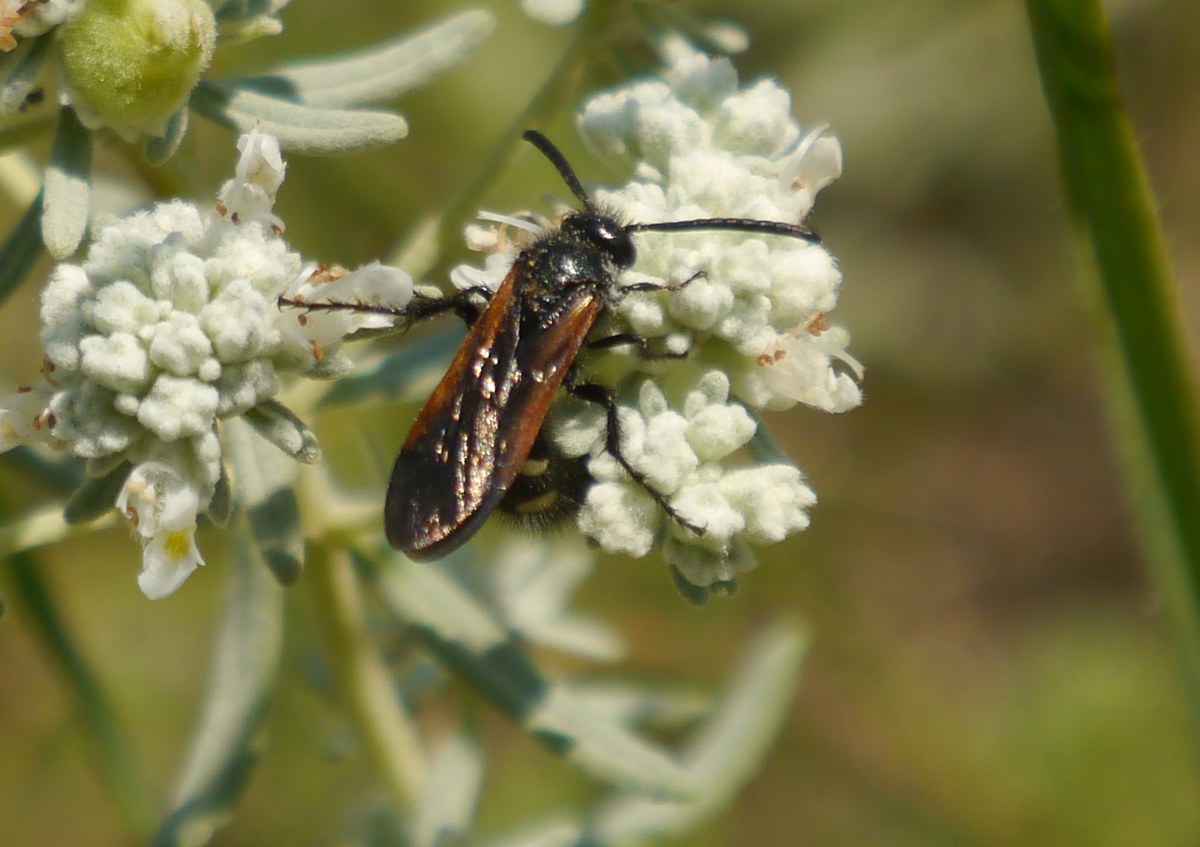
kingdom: Animalia
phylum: Arthropoda
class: Insecta
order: Hymenoptera
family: Vespidae
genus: Vespa
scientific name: Vespa sexmaculata
